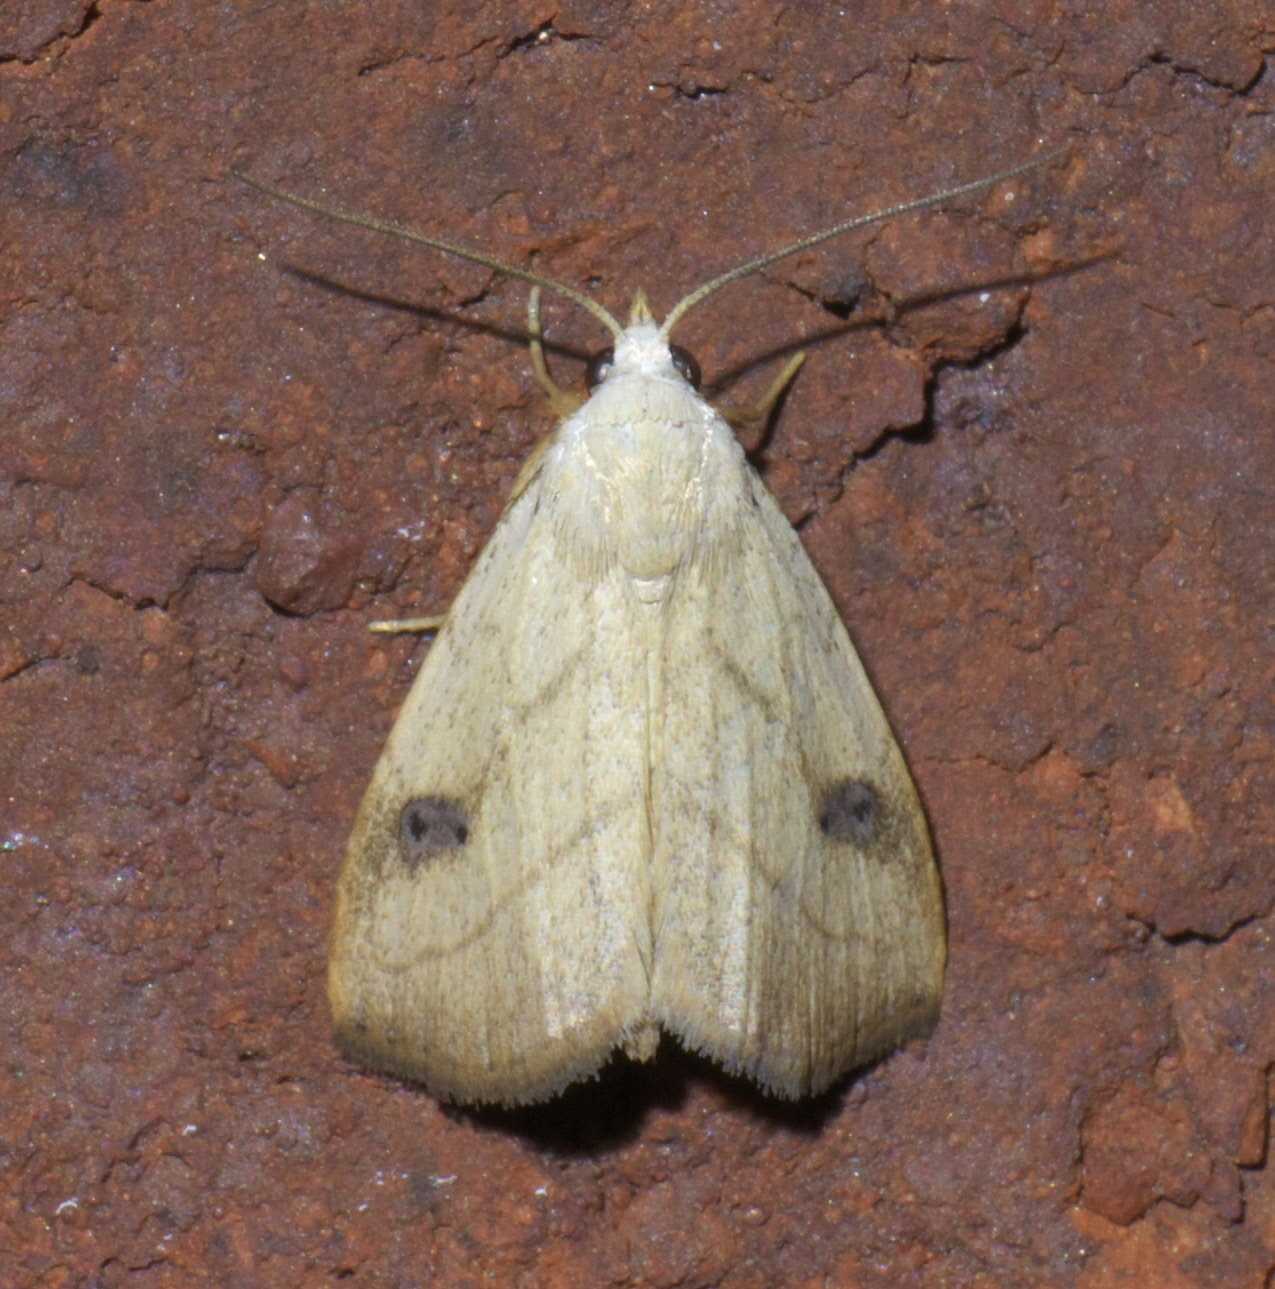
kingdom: Animalia
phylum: Arthropoda
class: Insecta
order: Lepidoptera
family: Erebidae
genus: Rivula
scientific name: Rivula propinqualis
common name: Spotted grass moth
